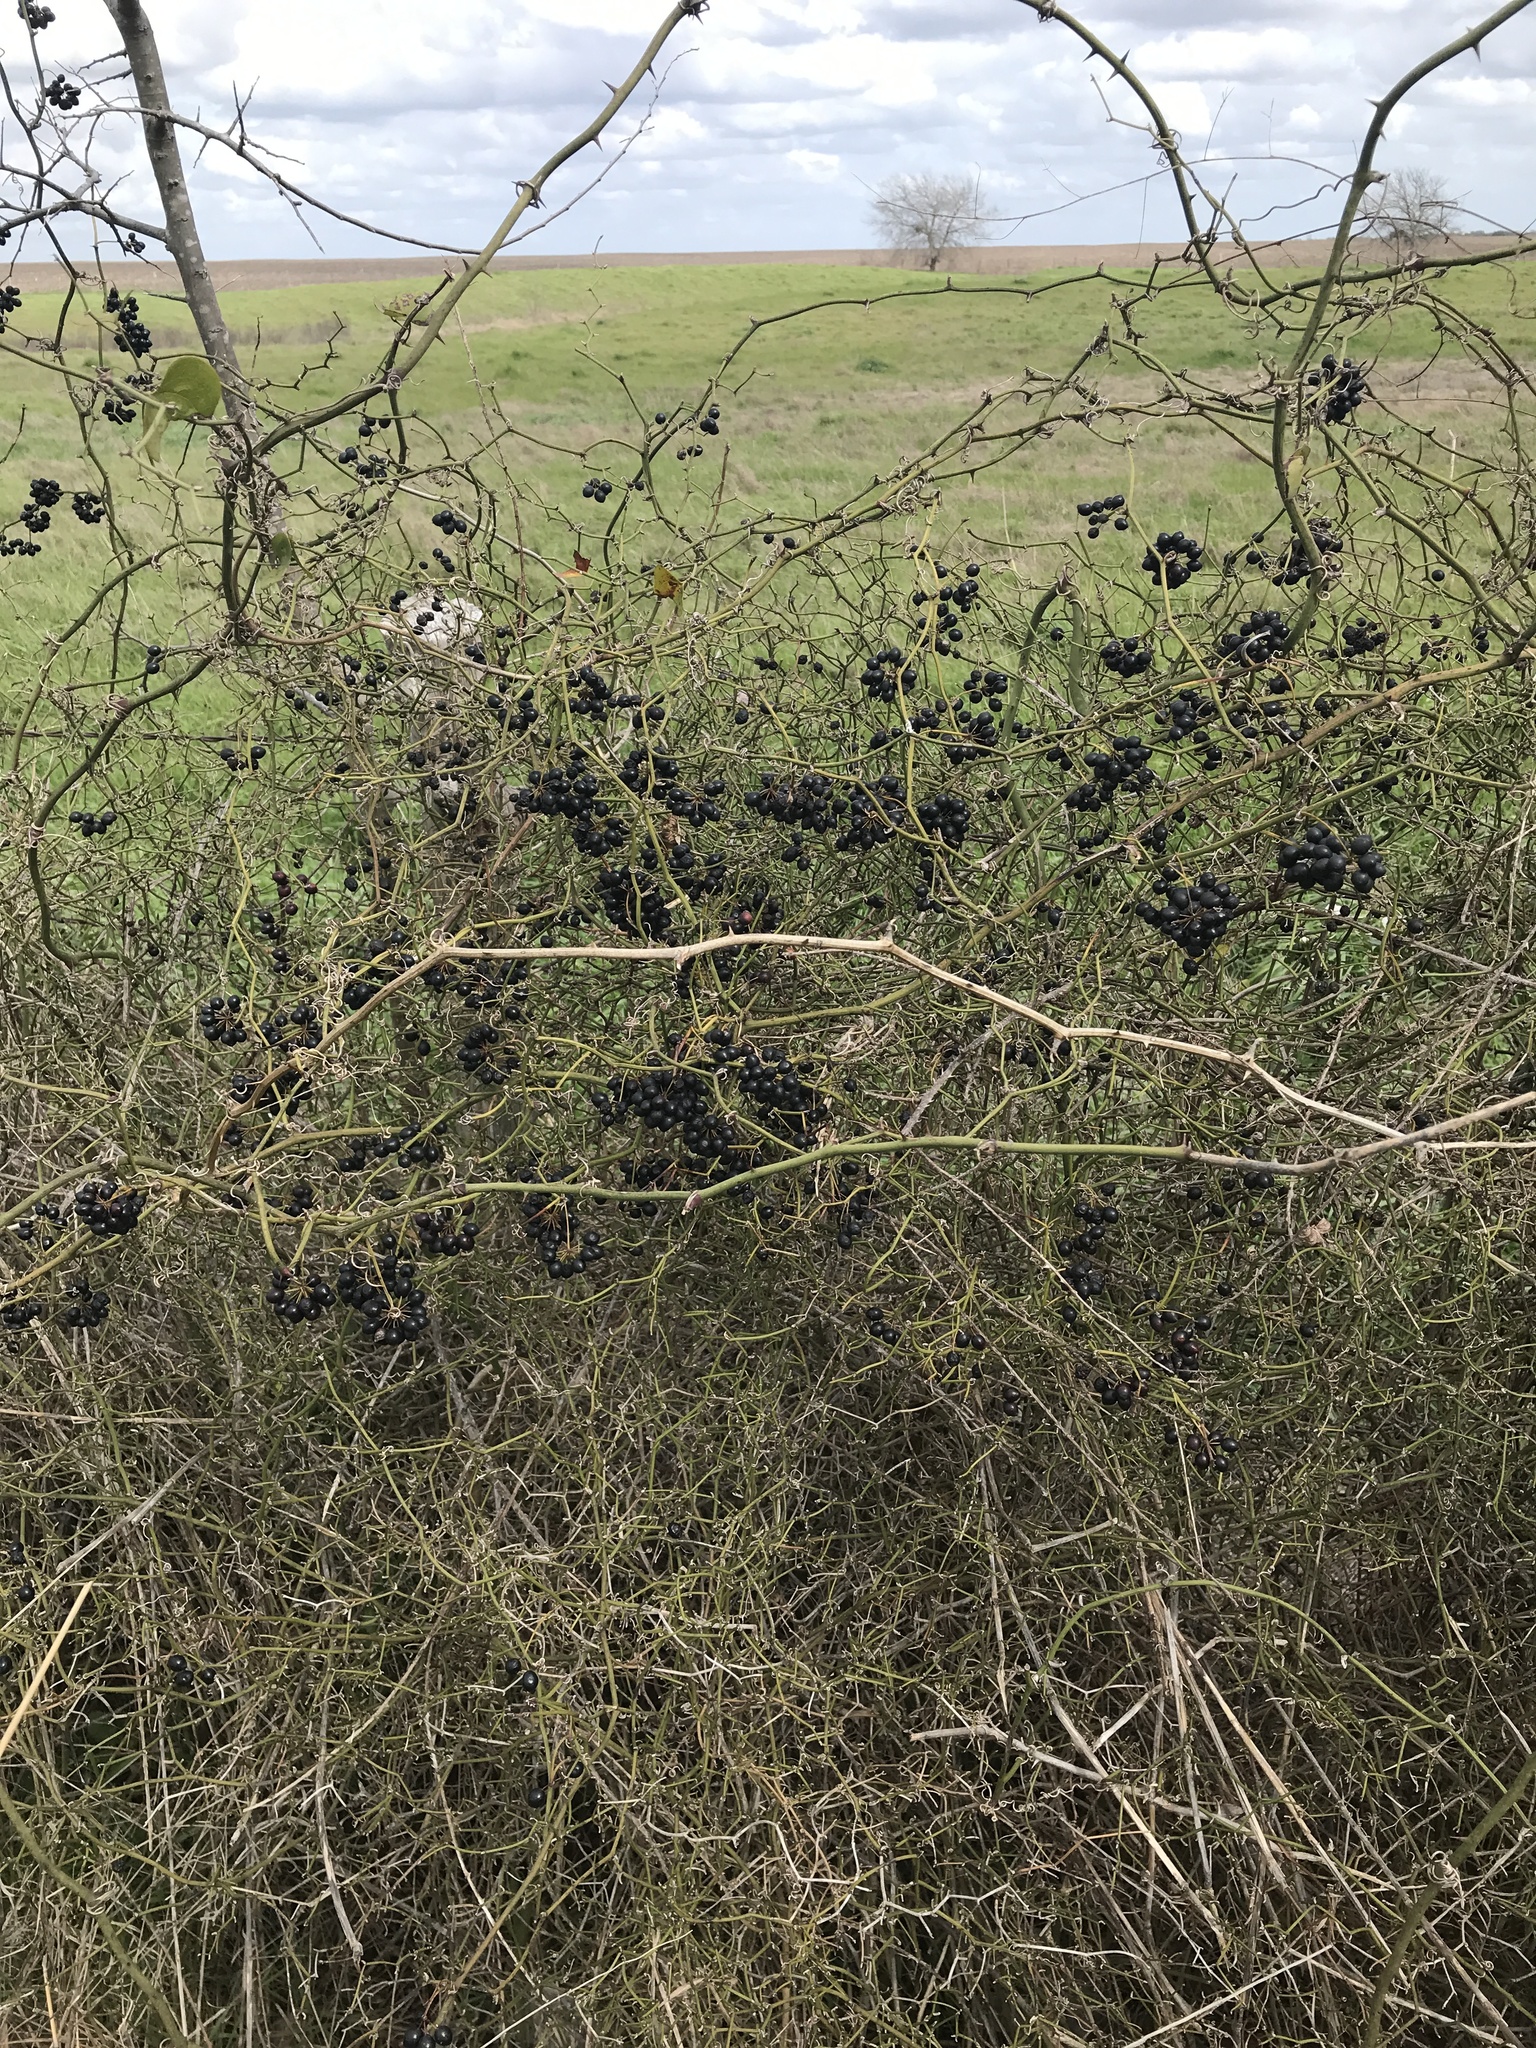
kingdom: Plantae
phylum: Tracheophyta
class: Liliopsida
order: Liliales
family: Smilacaceae
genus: Smilax
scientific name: Smilax bona-nox
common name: Catbrier
